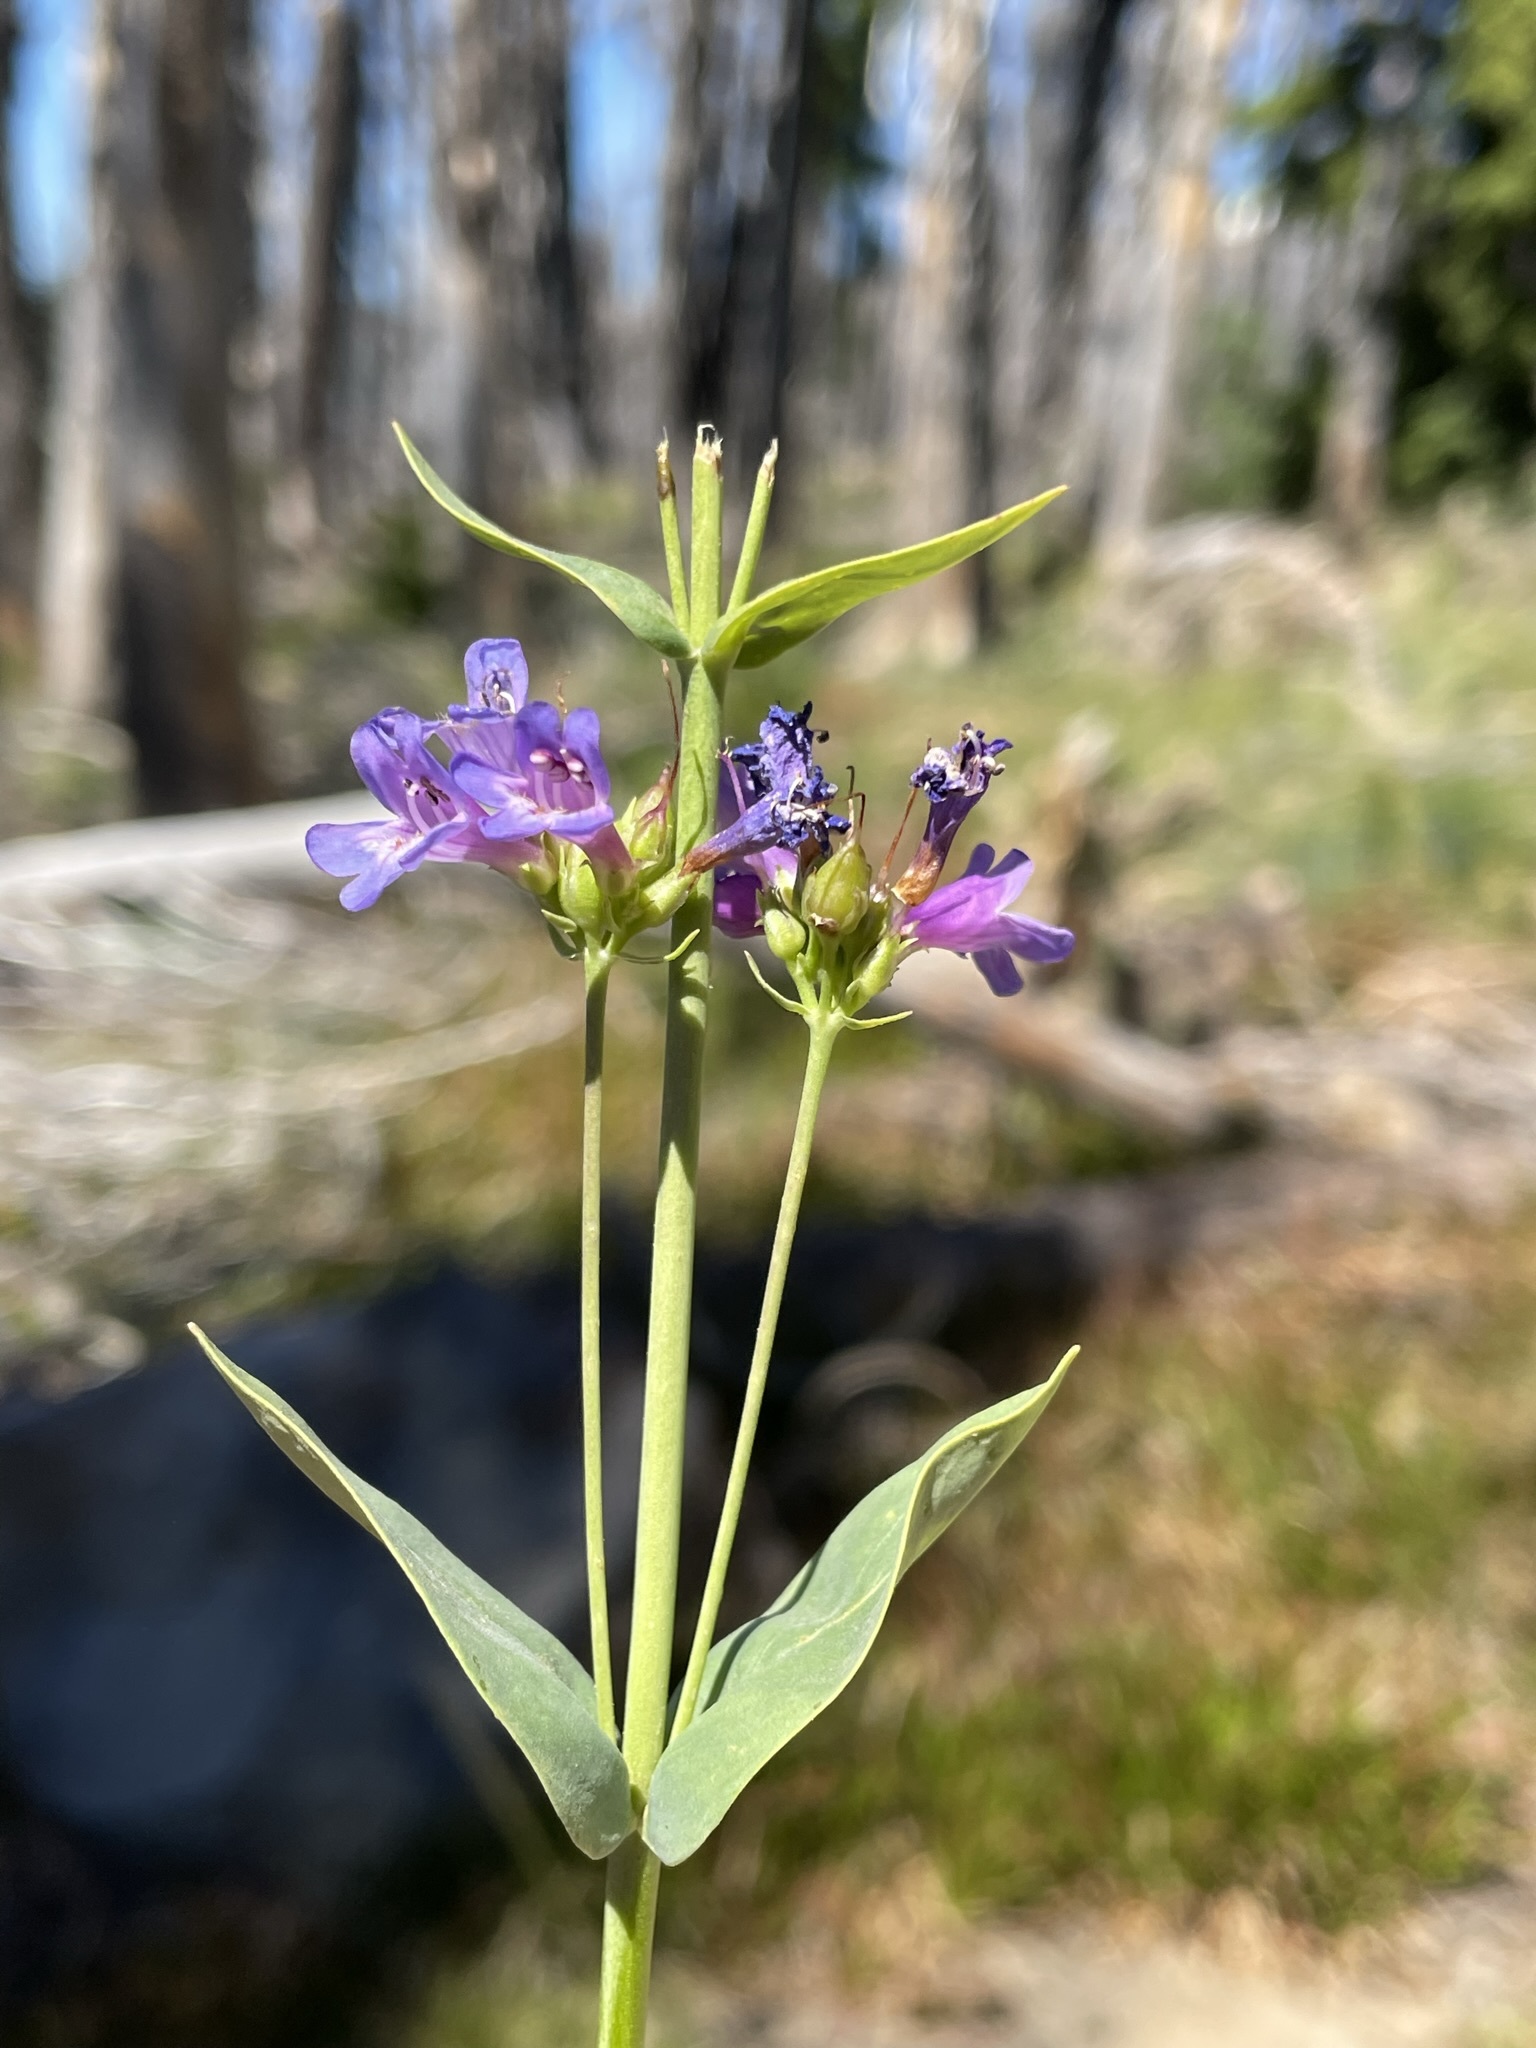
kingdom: Plantae
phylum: Tracheophyta
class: Magnoliopsida
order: Lamiales
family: Plantaginaceae
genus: Penstemon
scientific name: Penstemon euglaucus
